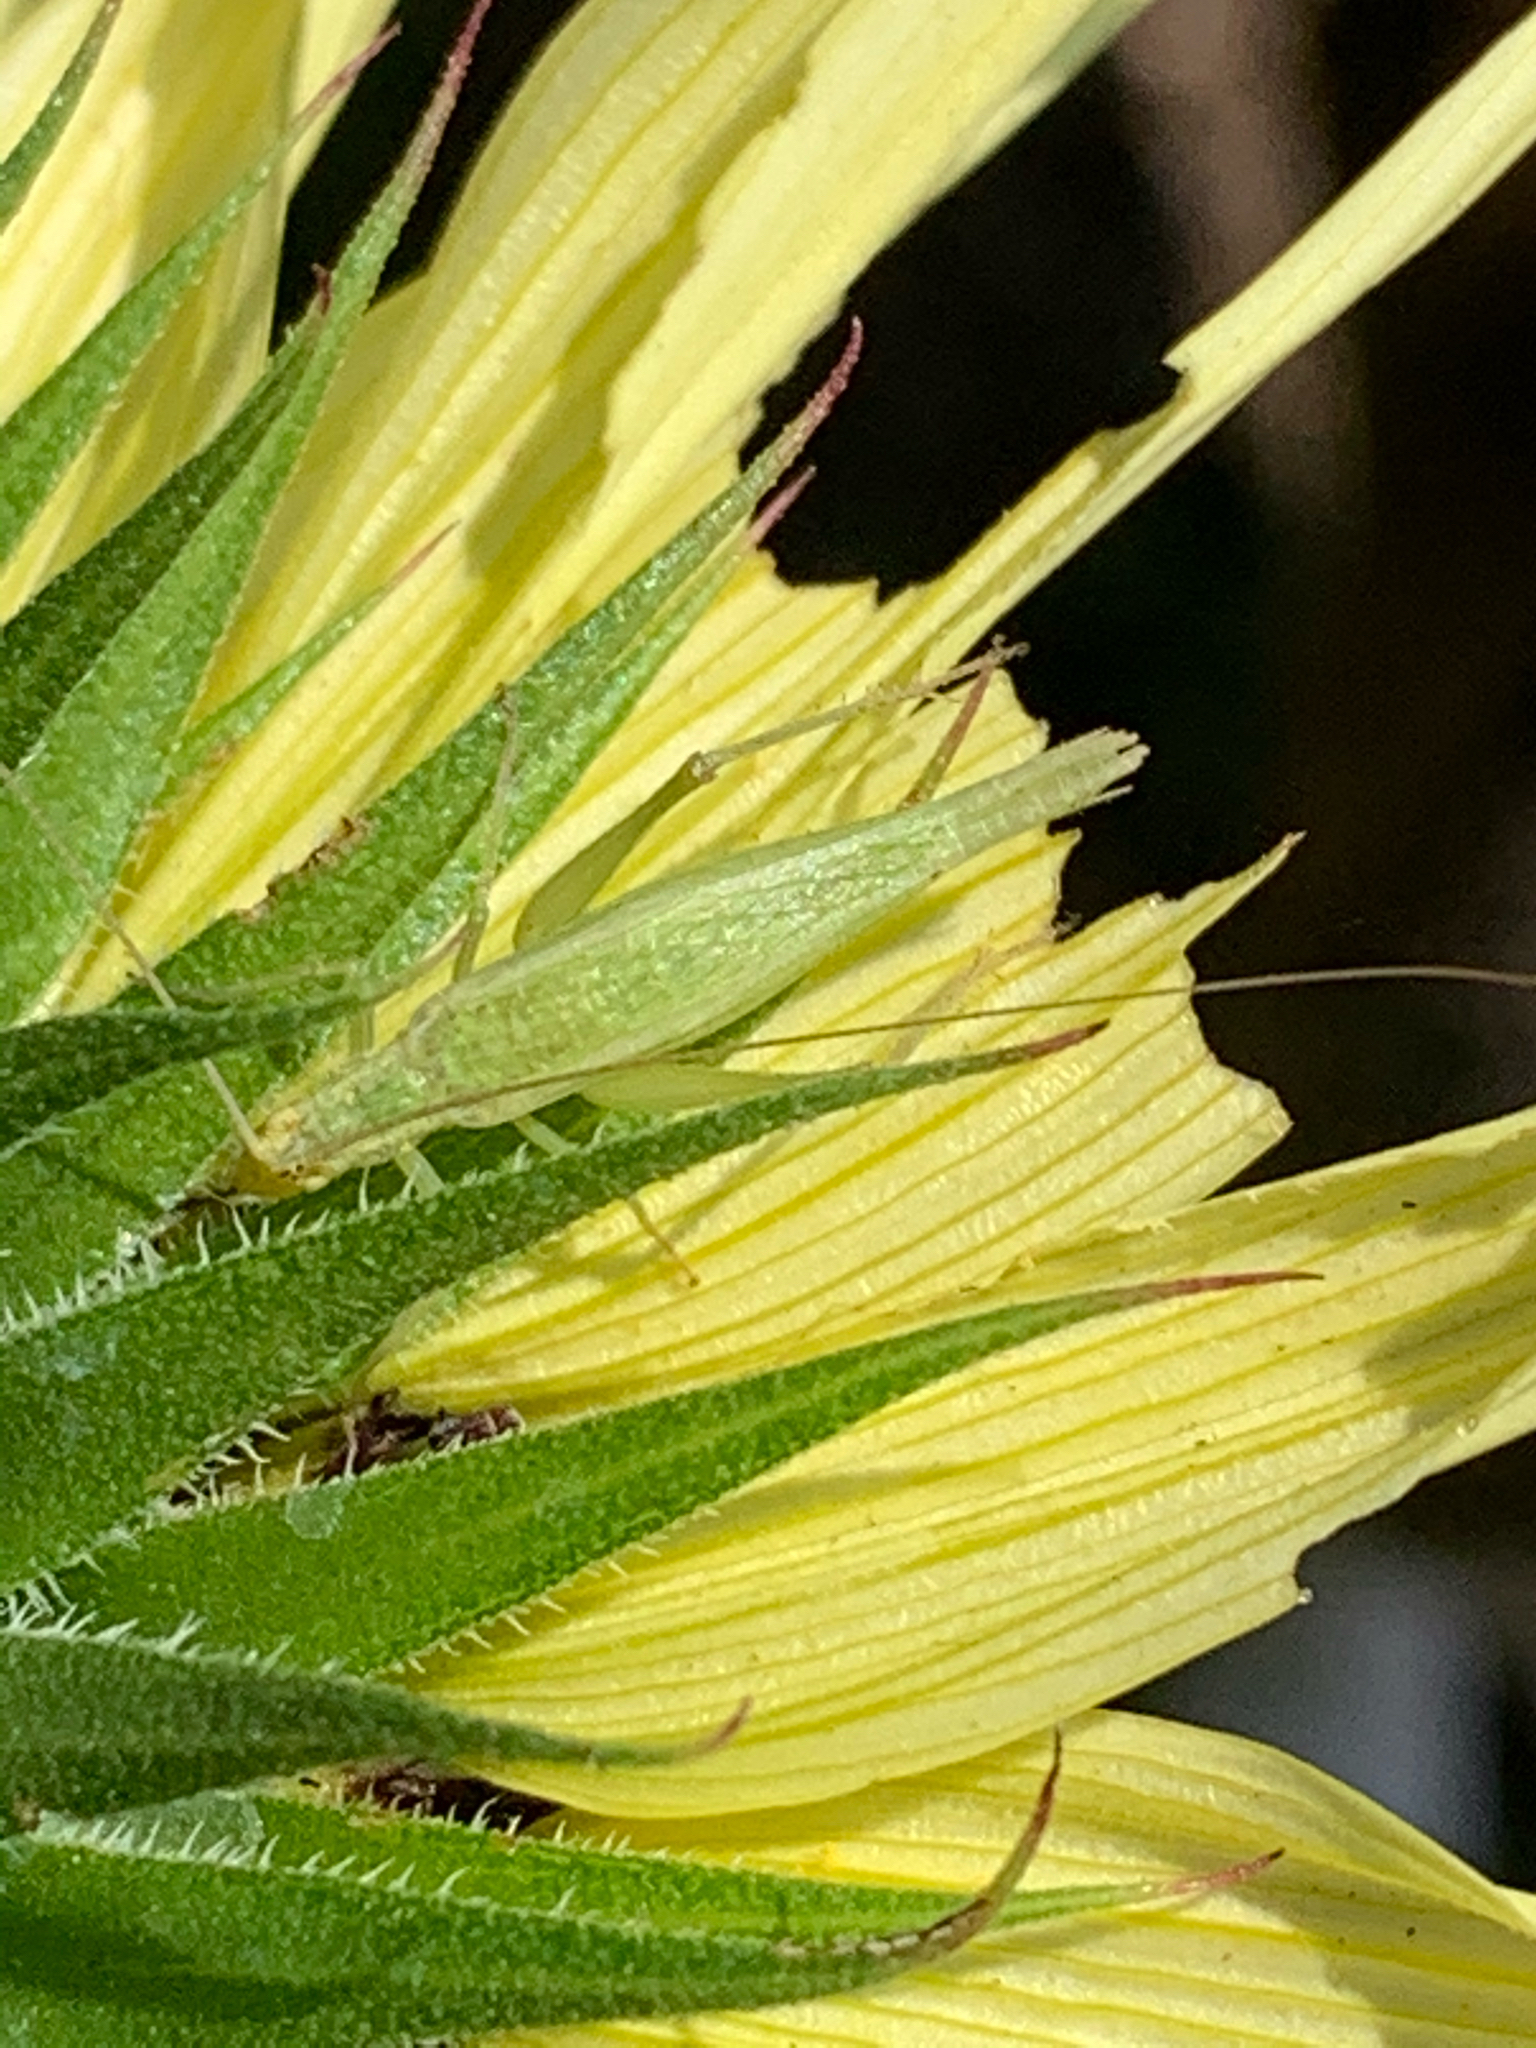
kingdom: Animalia
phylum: Arthropoda
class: Insecta
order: Orthoptera
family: Gryllidae
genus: Oecanthus
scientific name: Oecanthus
